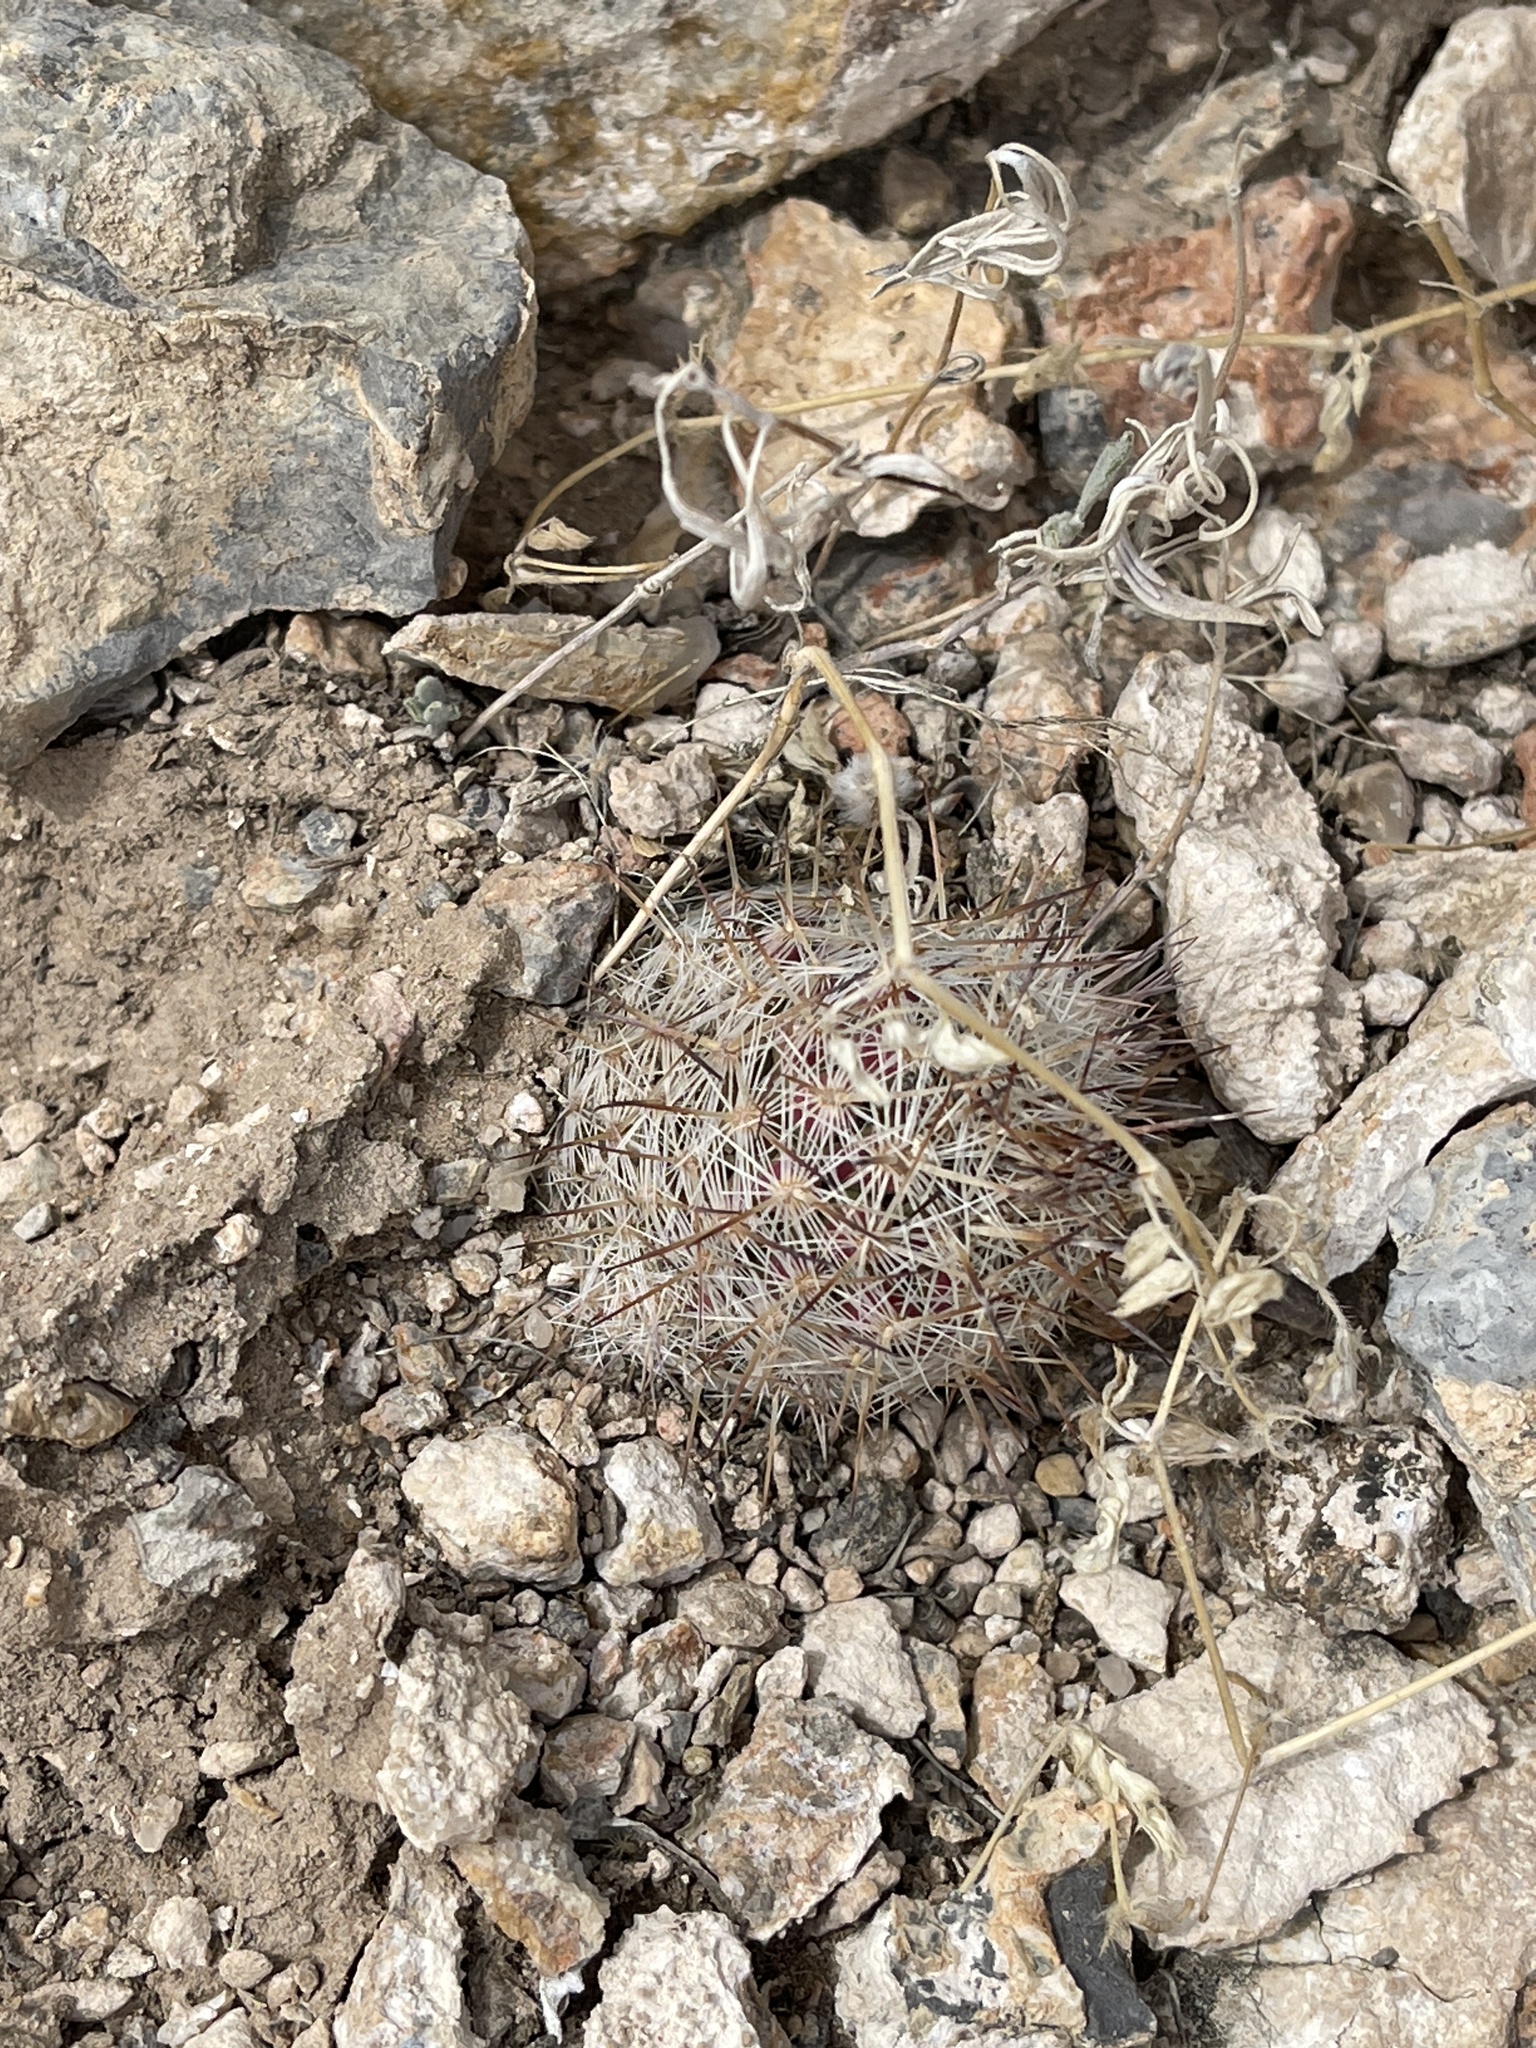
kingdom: Plantae
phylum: Tracheophyta
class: Magnoliopsida
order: Caryophyllales
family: Cactaceae
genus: Cochemiea
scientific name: Cochemiea grahamii
